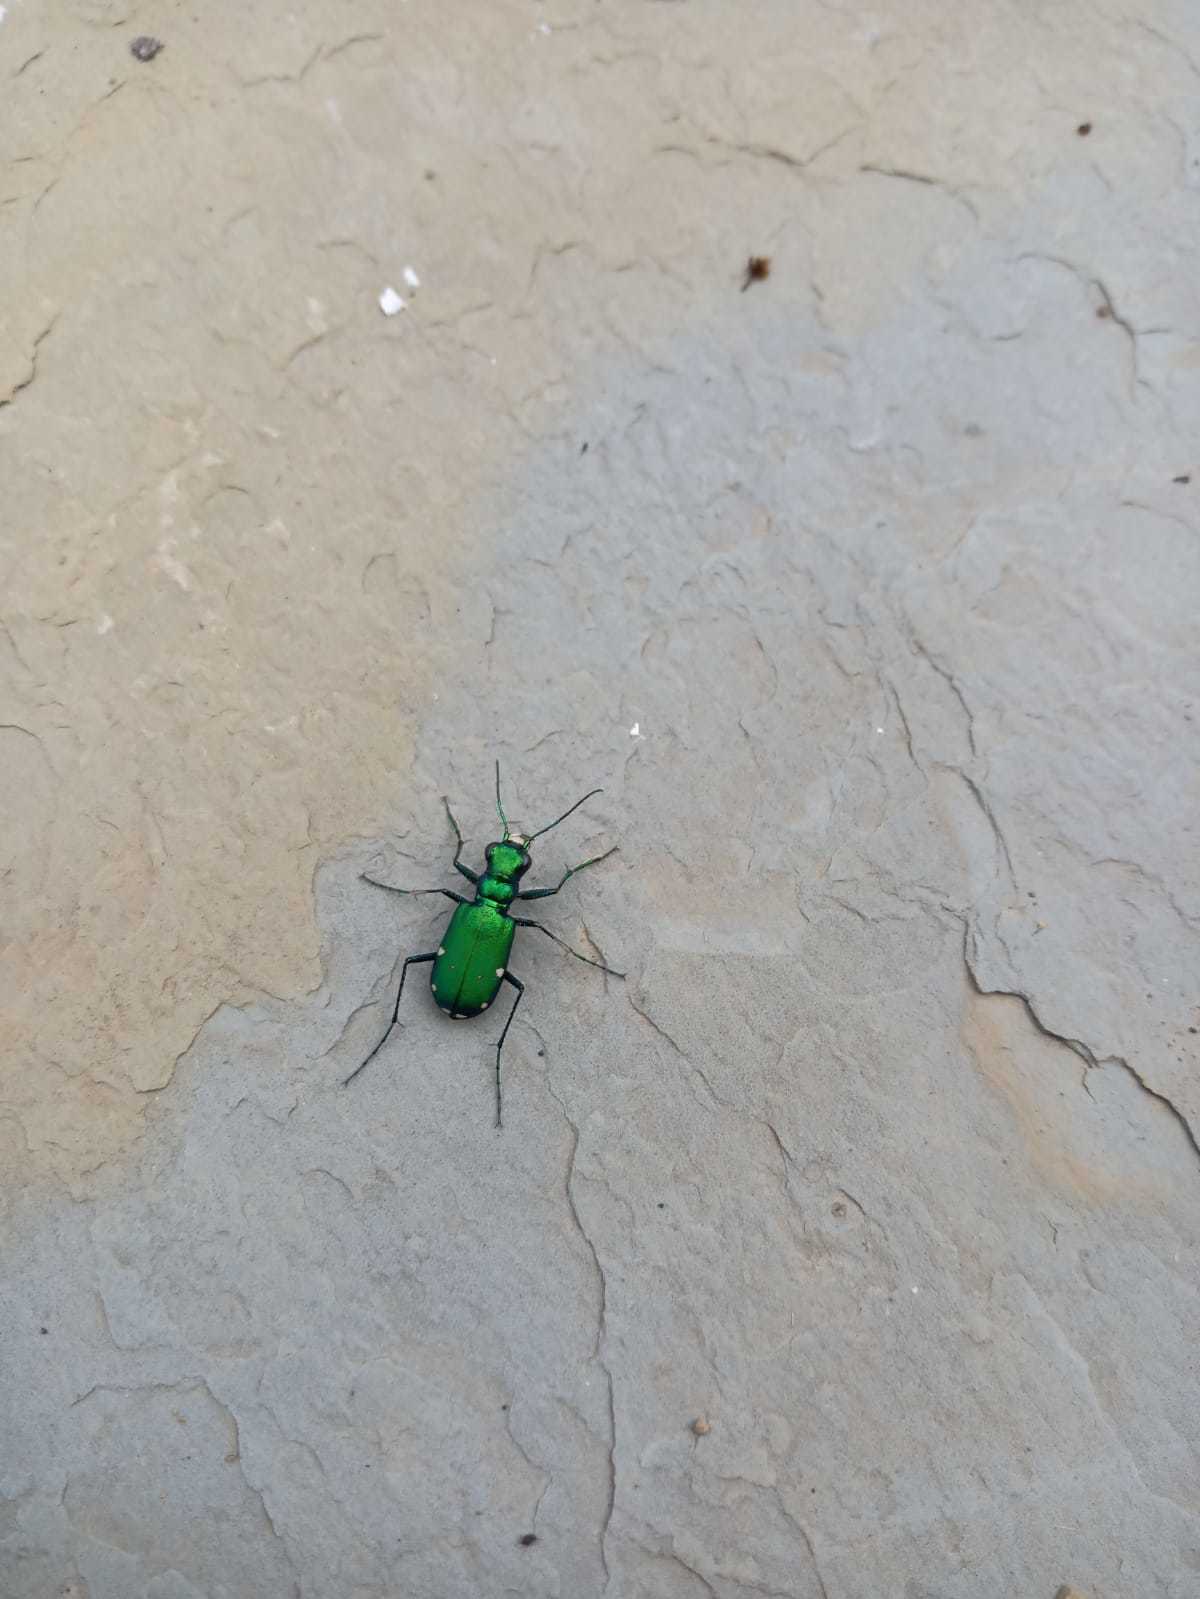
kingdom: Animalia
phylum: Arthropoda
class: Insecta
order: Coleoptera
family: Carabidae
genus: Cicindela
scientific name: Cicindela sexguttata
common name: Six-spotted tiger beetle
